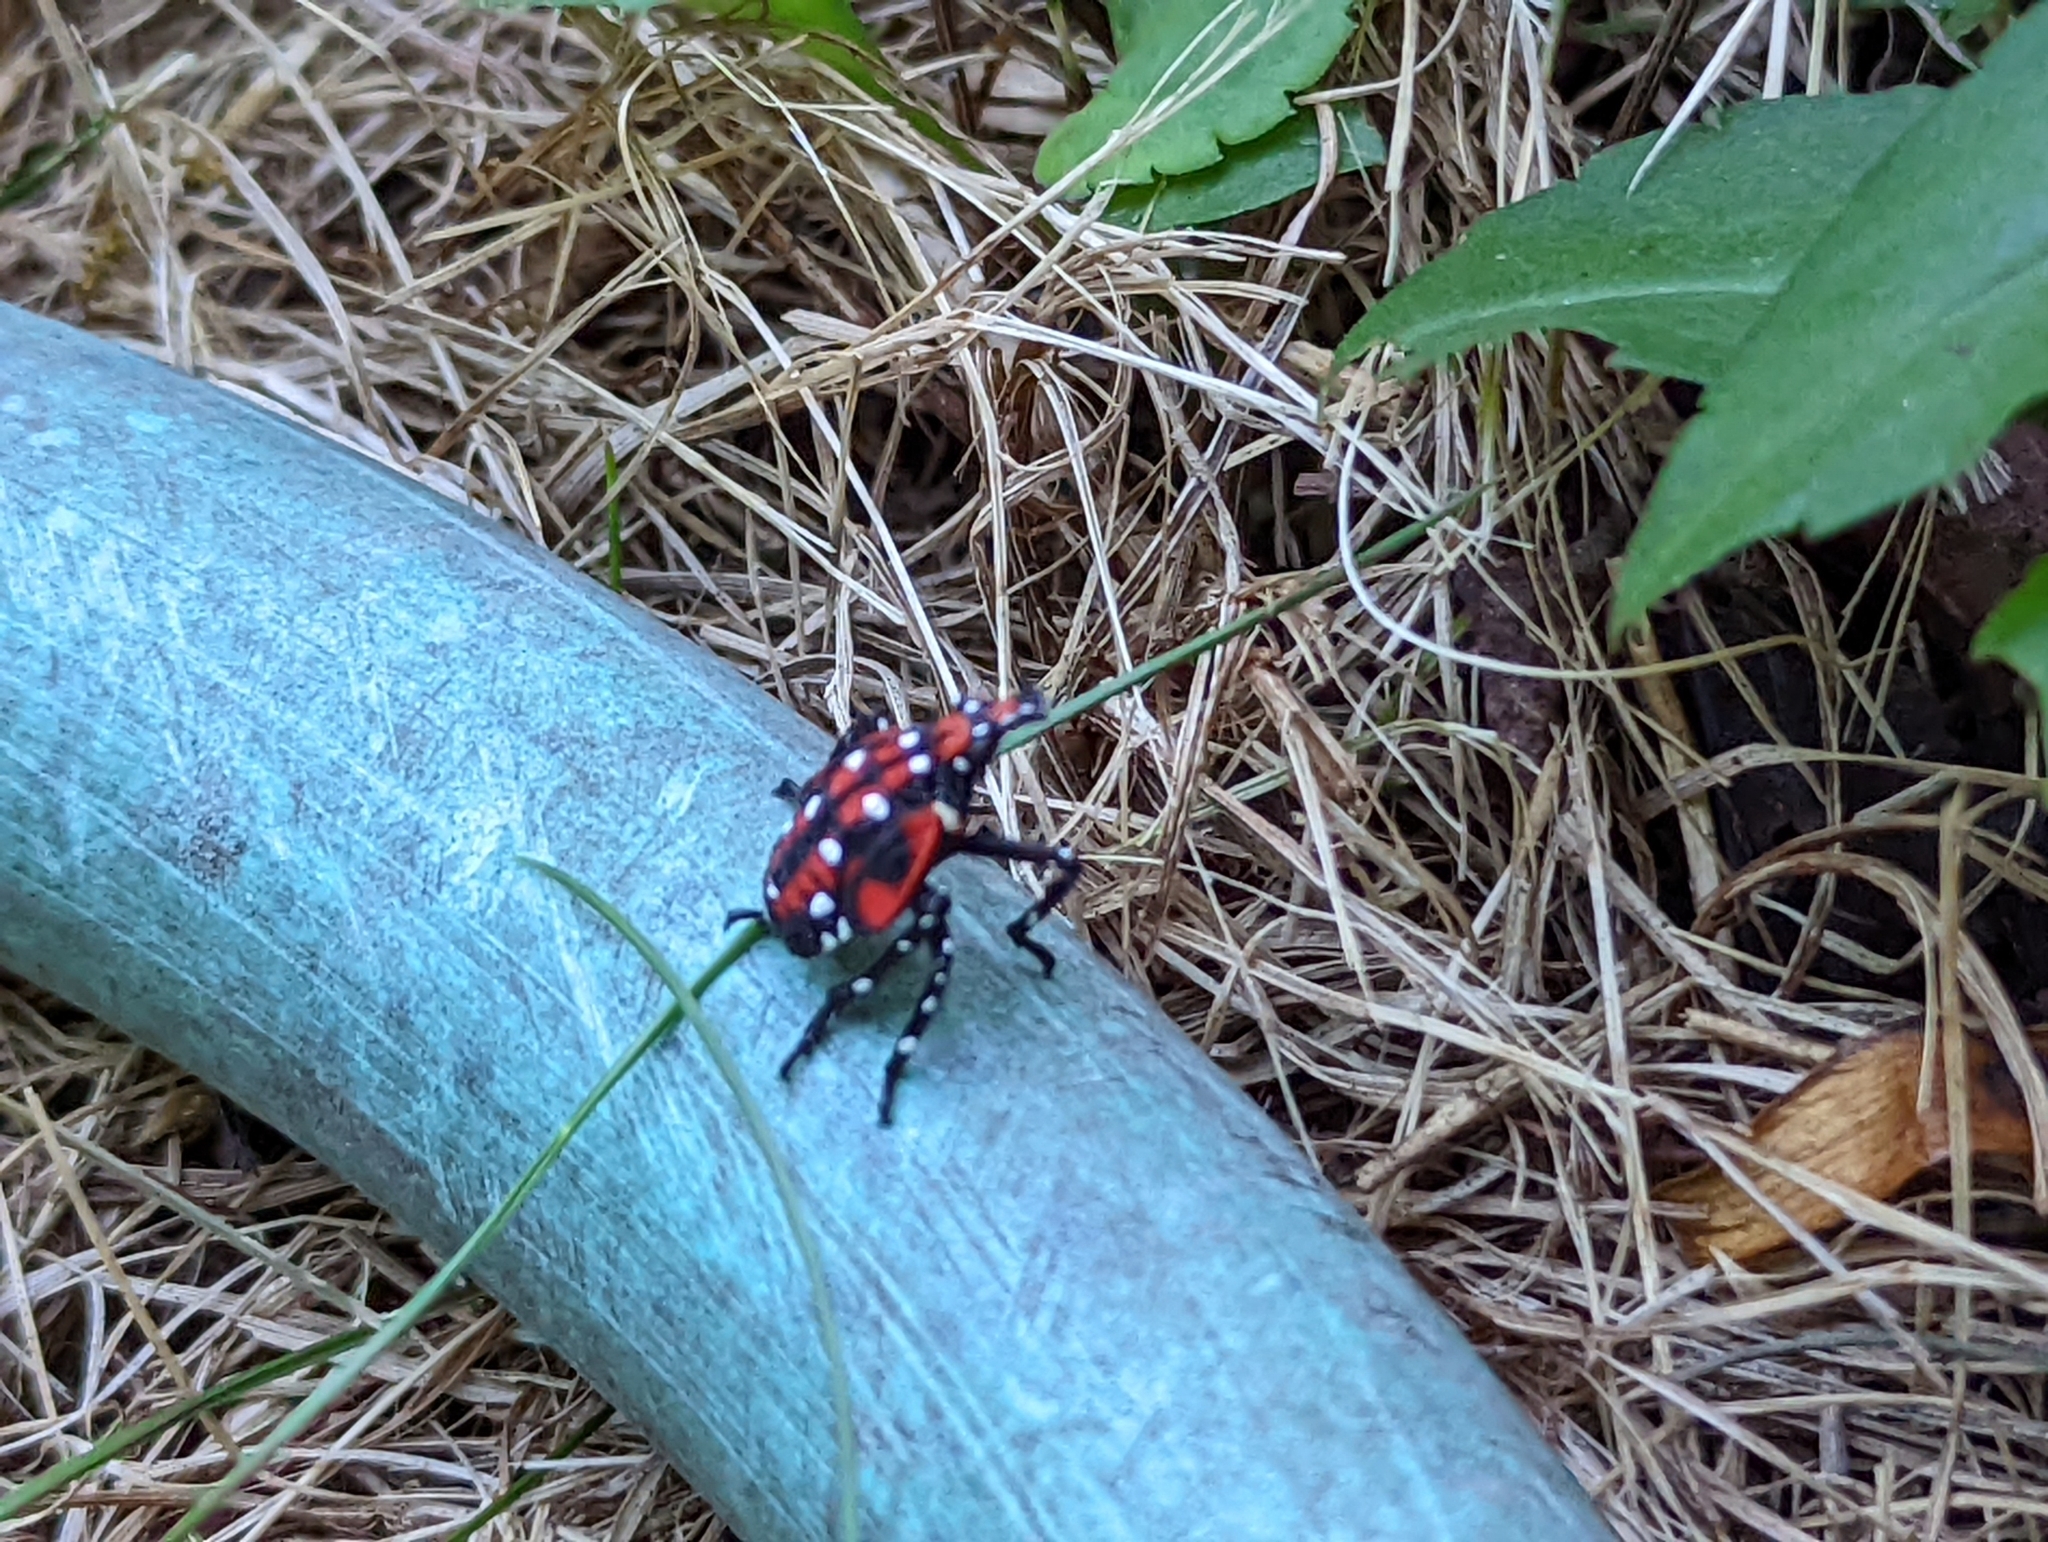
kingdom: Animalia
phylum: Arthropoda
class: Insecta
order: Hemiptera
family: Fulgoridae
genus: Lycorma
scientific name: Lycorma delicatula
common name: Spotted lanternfly
